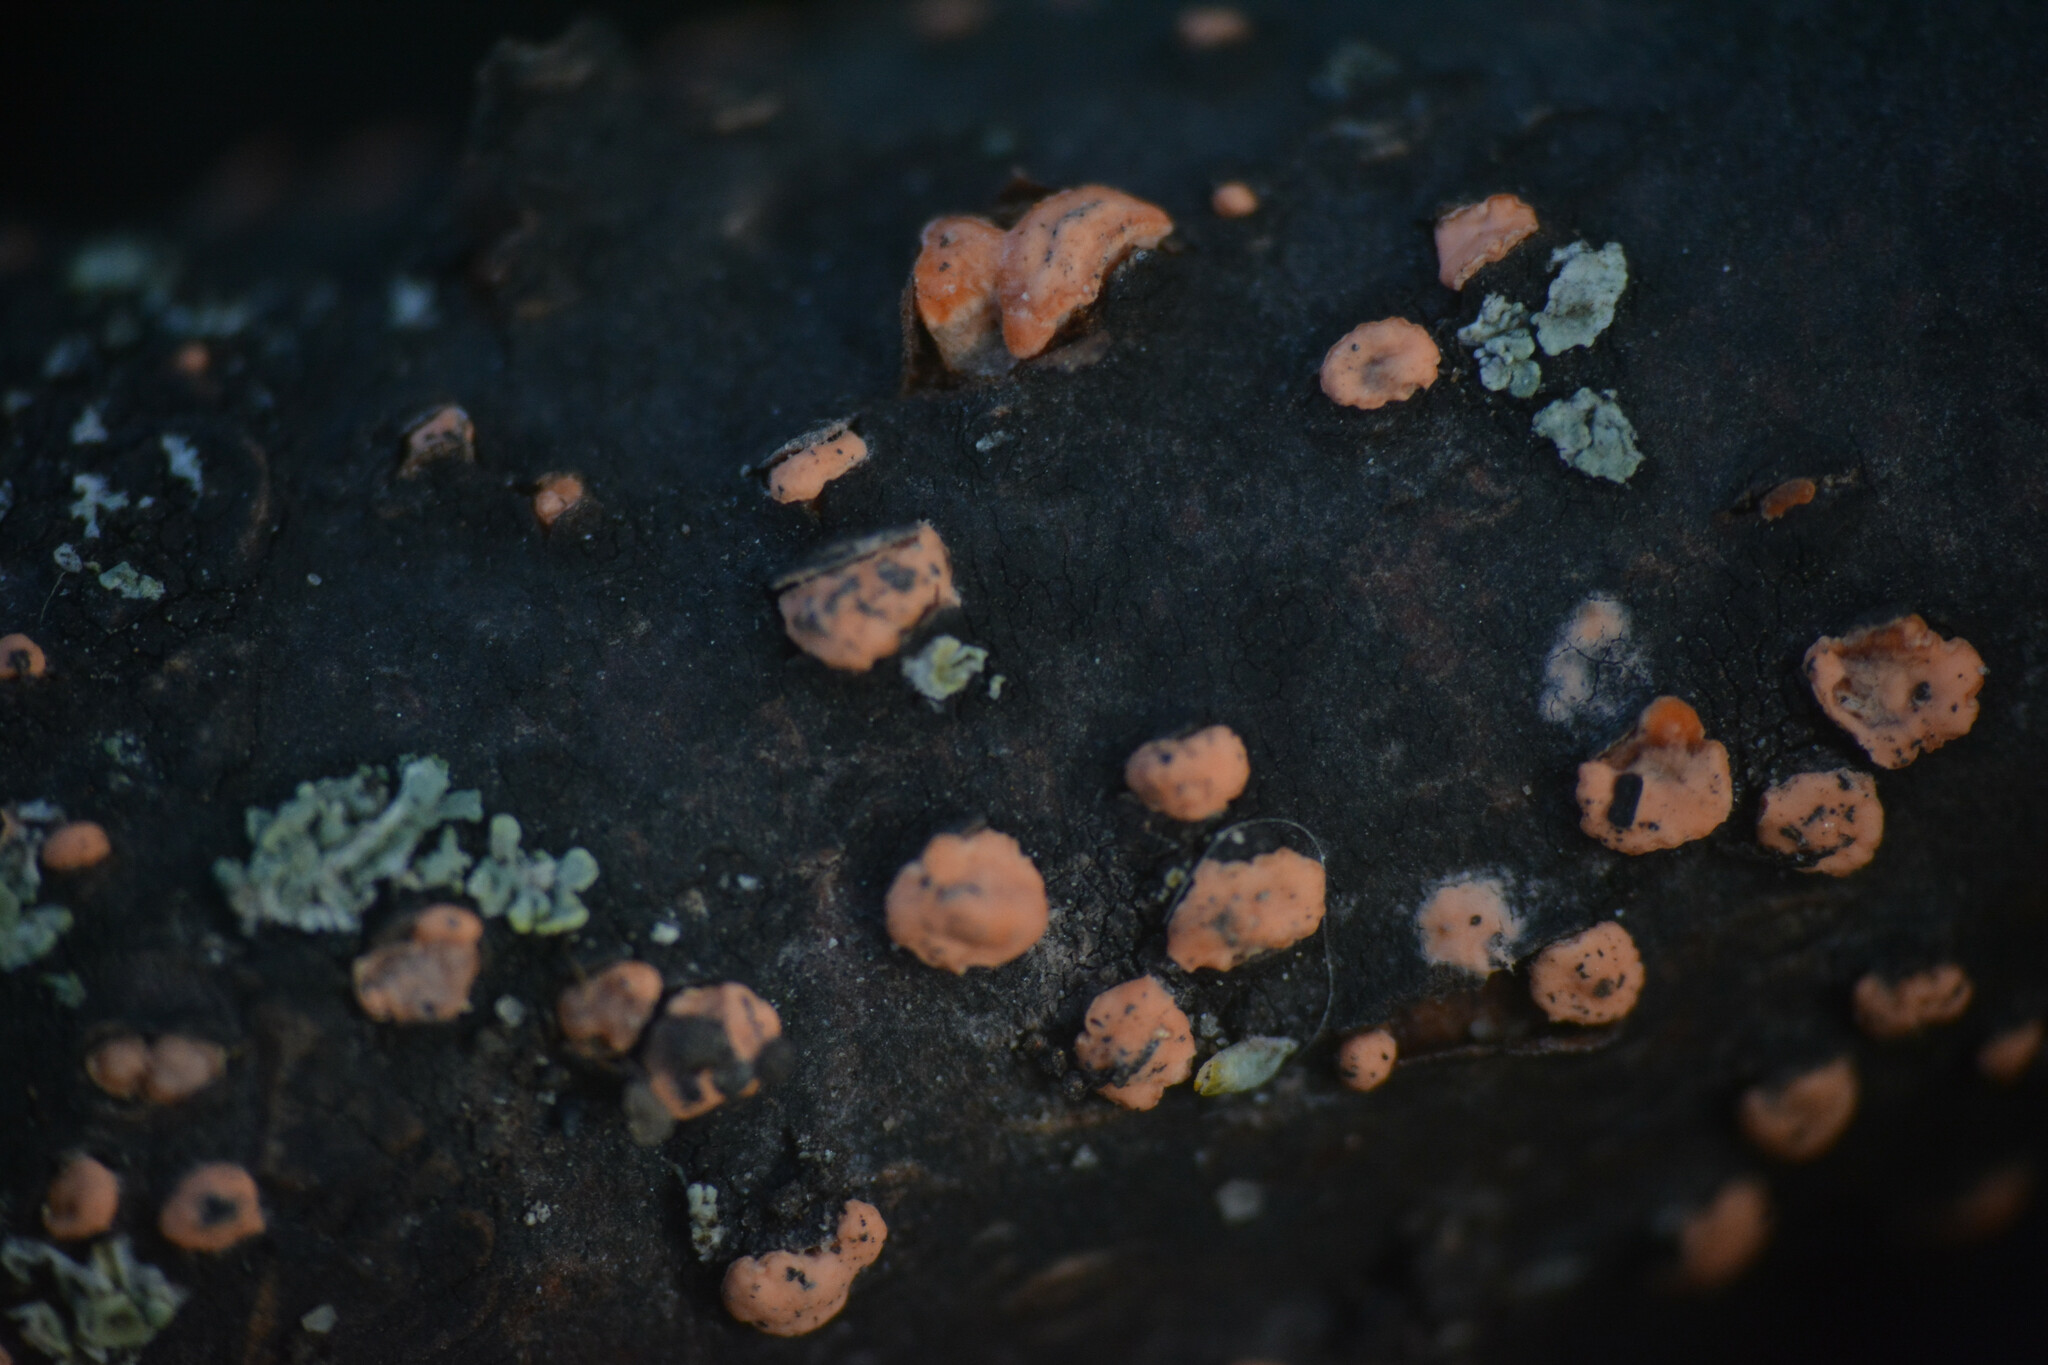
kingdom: Fungi
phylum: Ascomycota
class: Sordariomycetes
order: Hypocreales
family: Nectriaceae
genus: Nectria
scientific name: Nectria cinnabarina
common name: Coral spot
